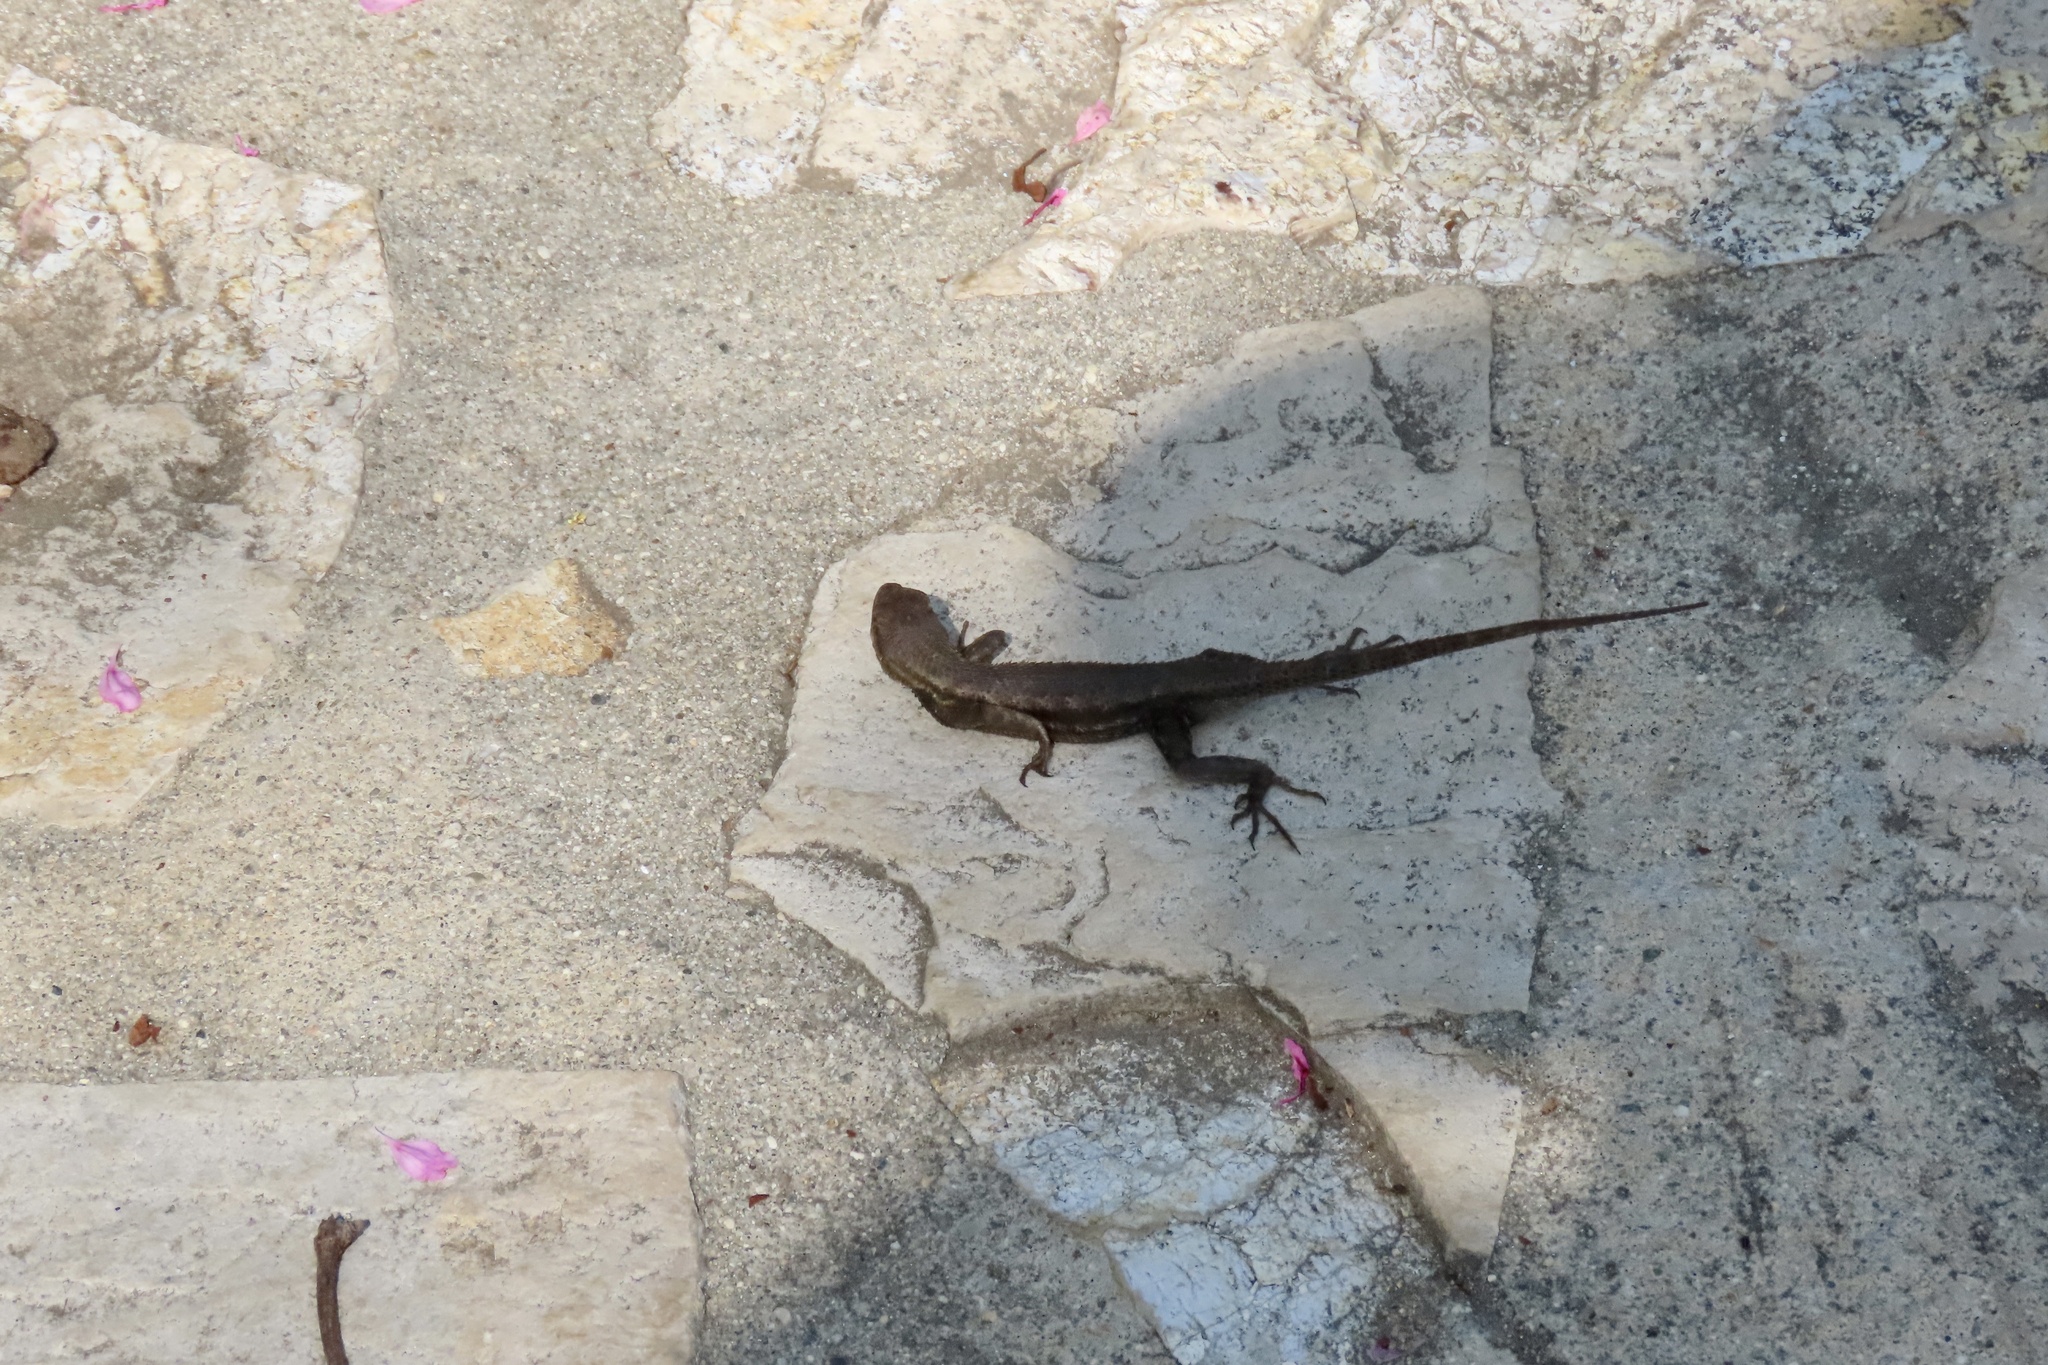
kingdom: Animalia
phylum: Chordata
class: Squamata
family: Phrynosomatidae
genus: Sceloporus
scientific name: Sceloporus occidentalis
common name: Western fence lizard
